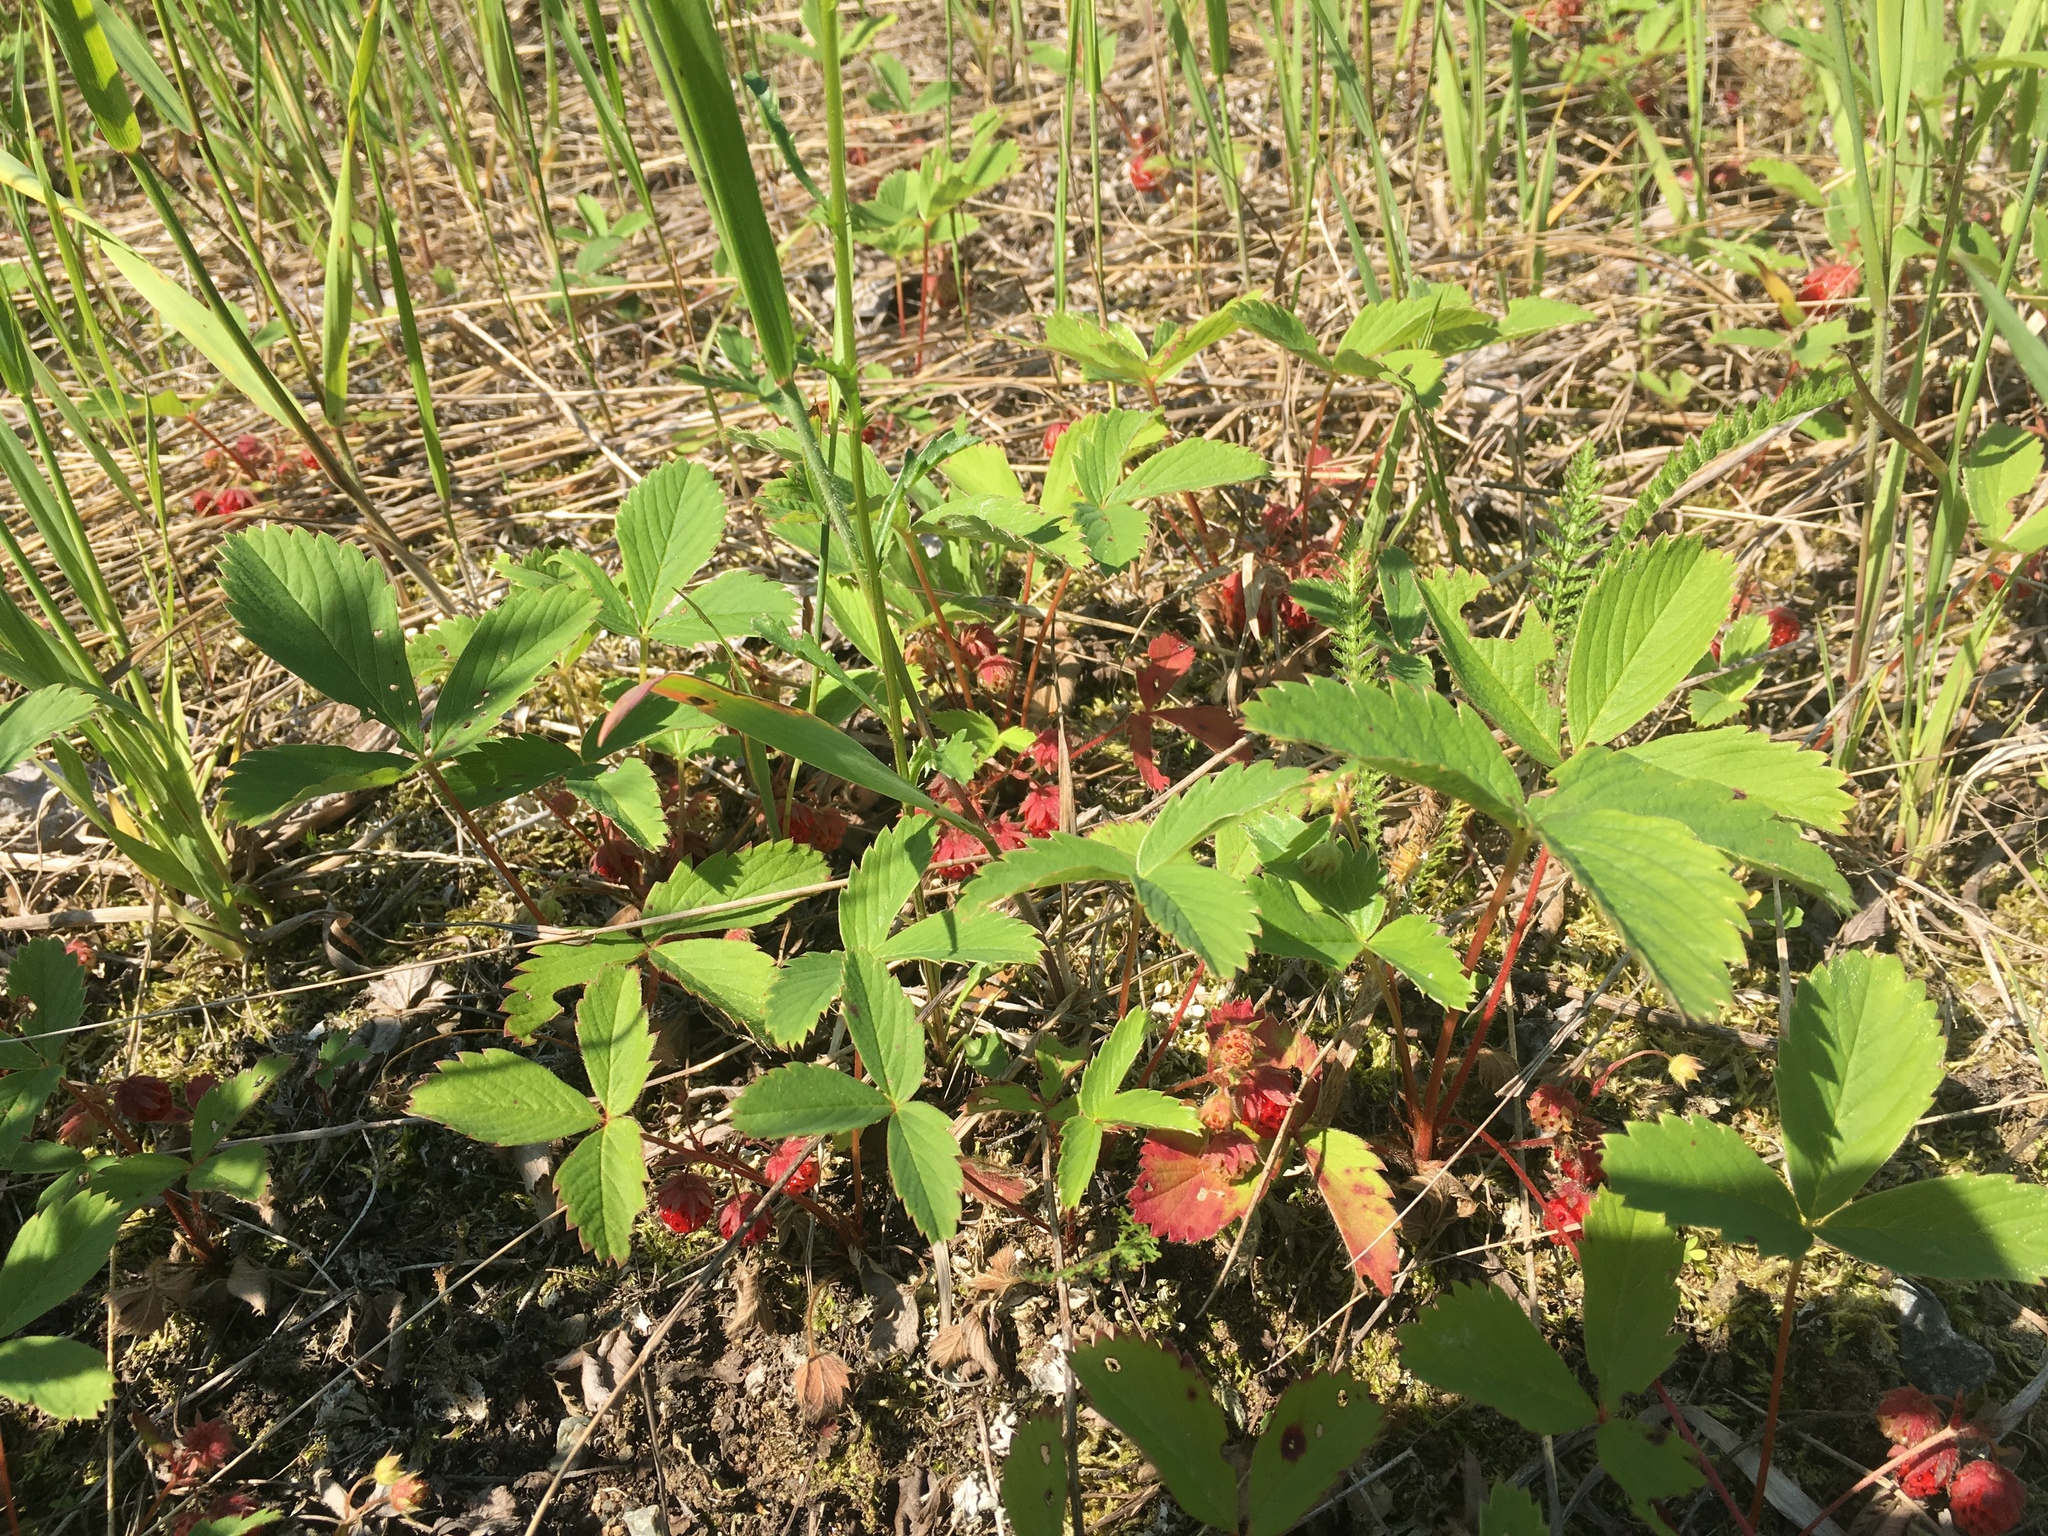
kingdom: Plantae
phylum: Tracheophyta
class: Magnoliopsida
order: Rosales
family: Rosaceae
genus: Fragaria
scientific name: Fragaria virginiana
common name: Thickleaved wild strawberry
